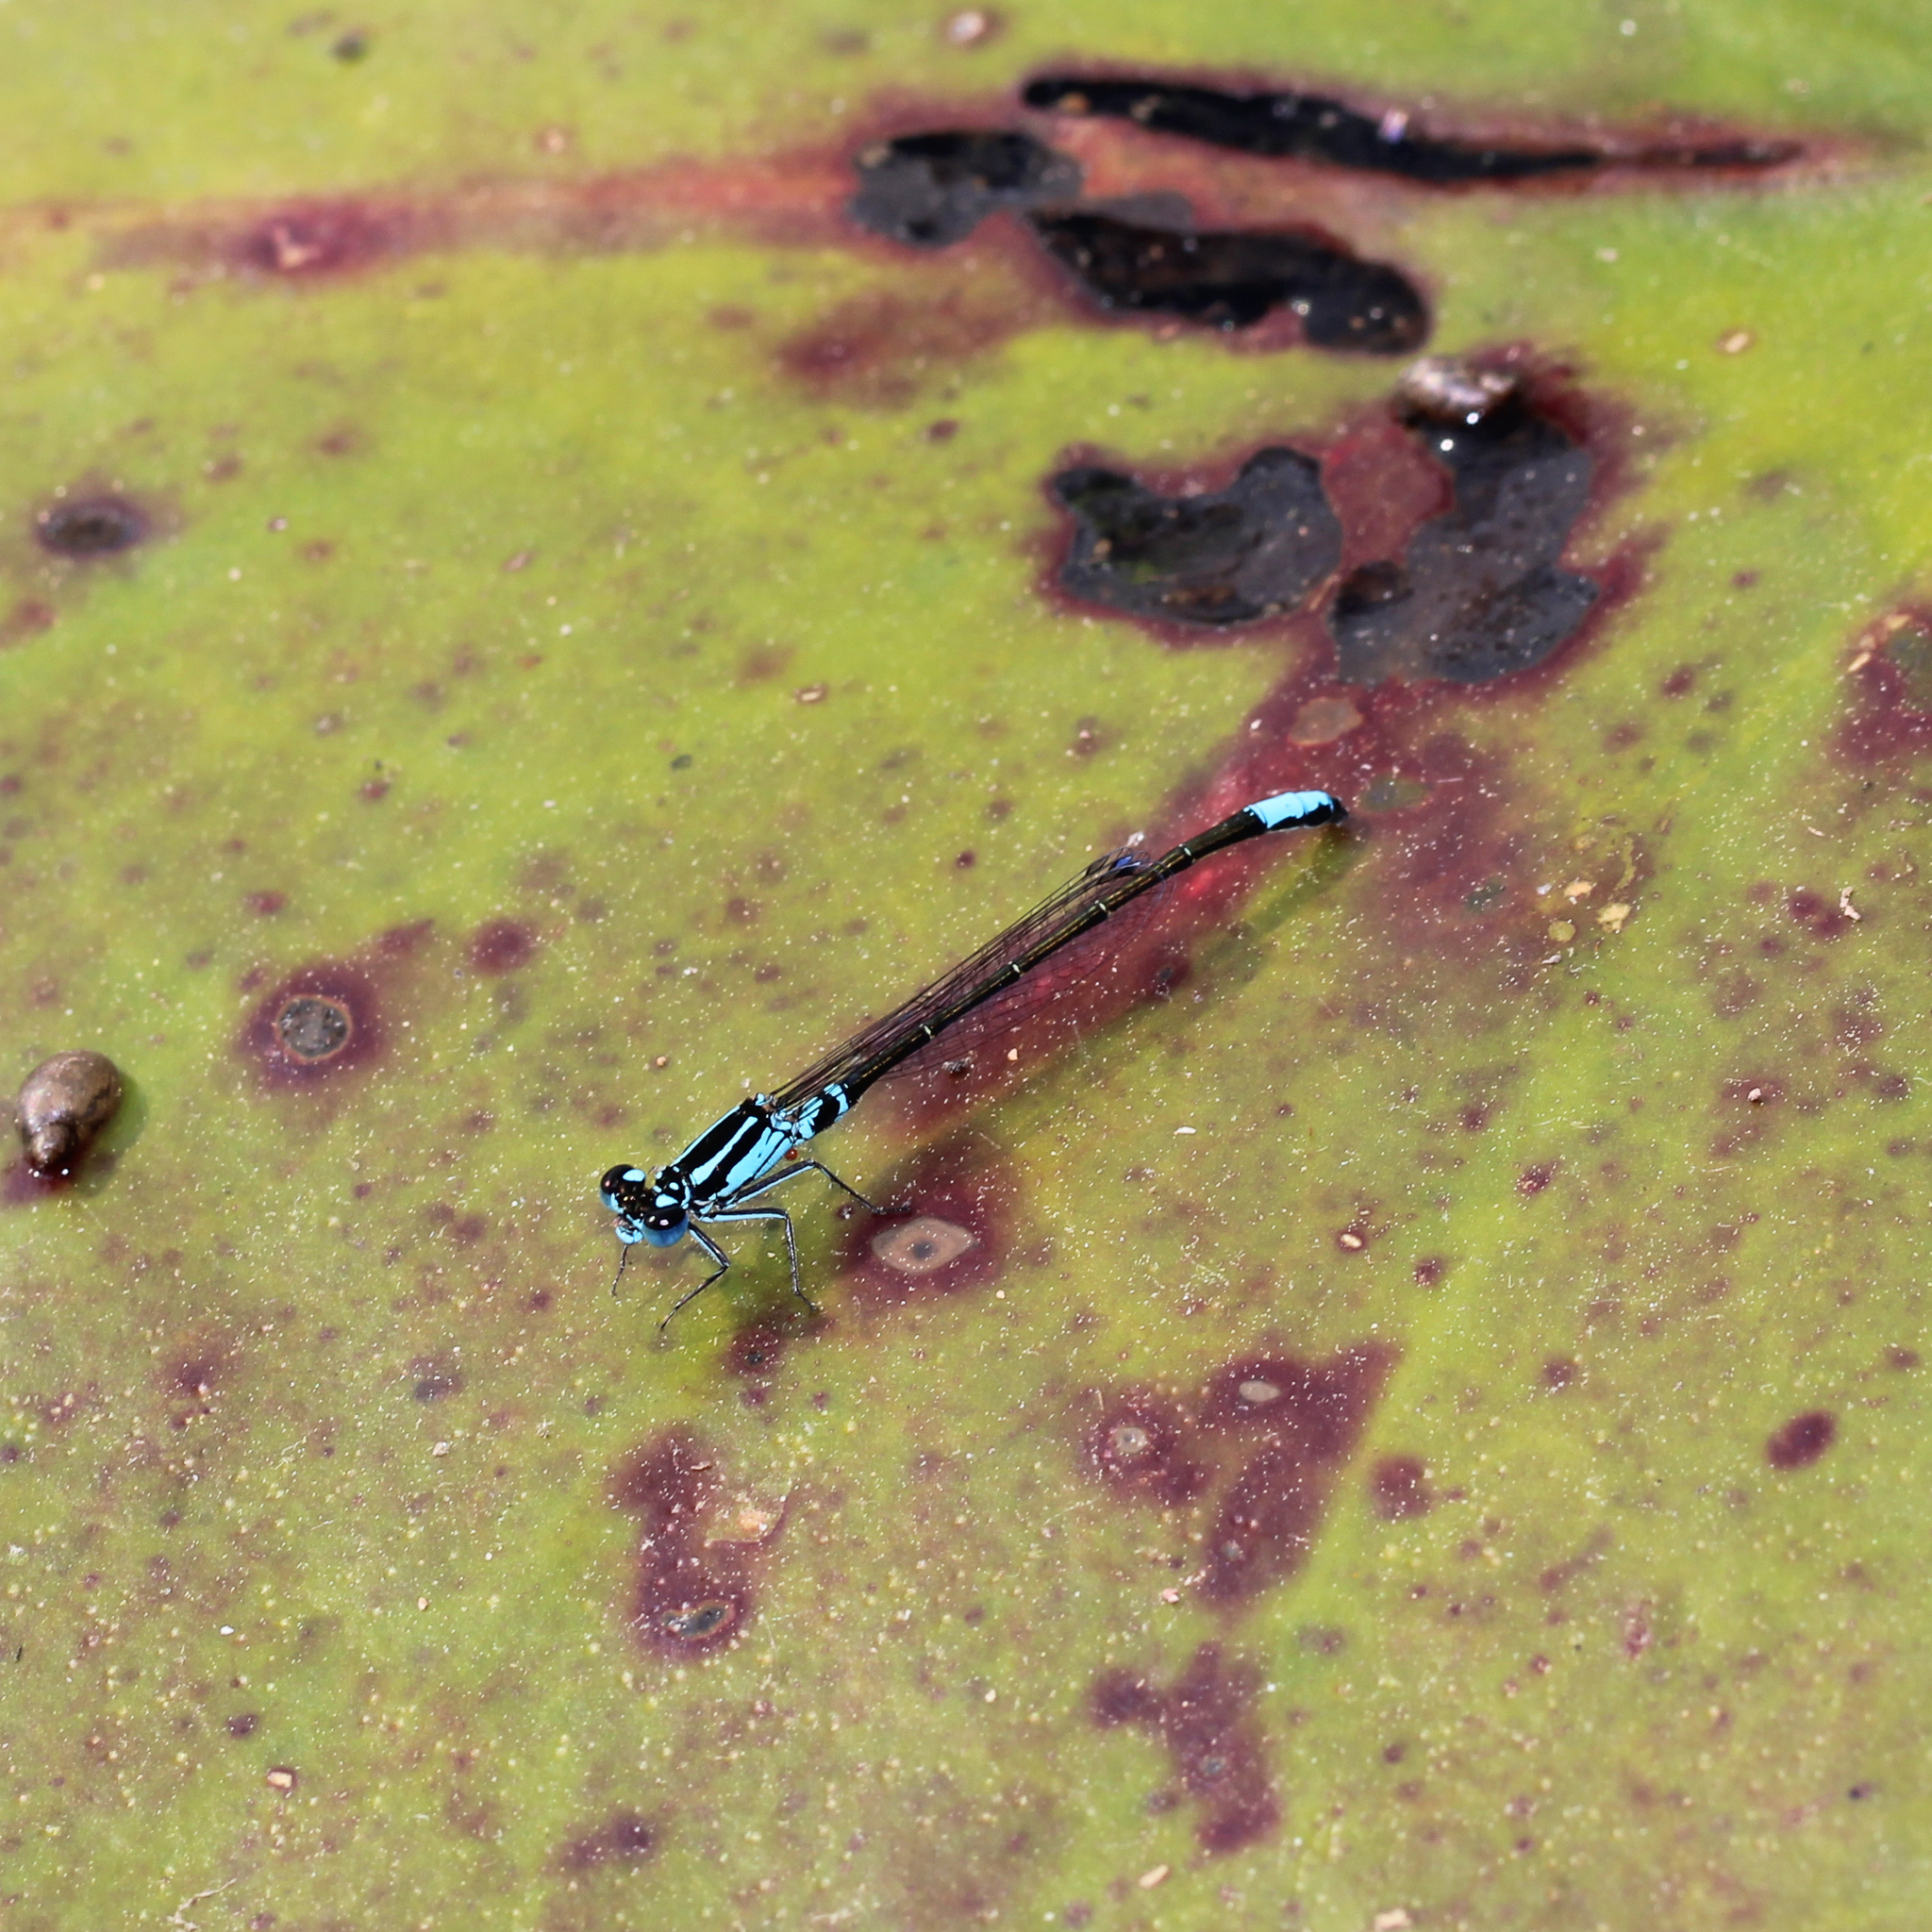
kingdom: Animalia
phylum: Arthropoda
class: Insecta
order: Odonata
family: Coenagrionidae
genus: Ischnura
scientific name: Ischnura kellicotti
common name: Lilypad forktail
